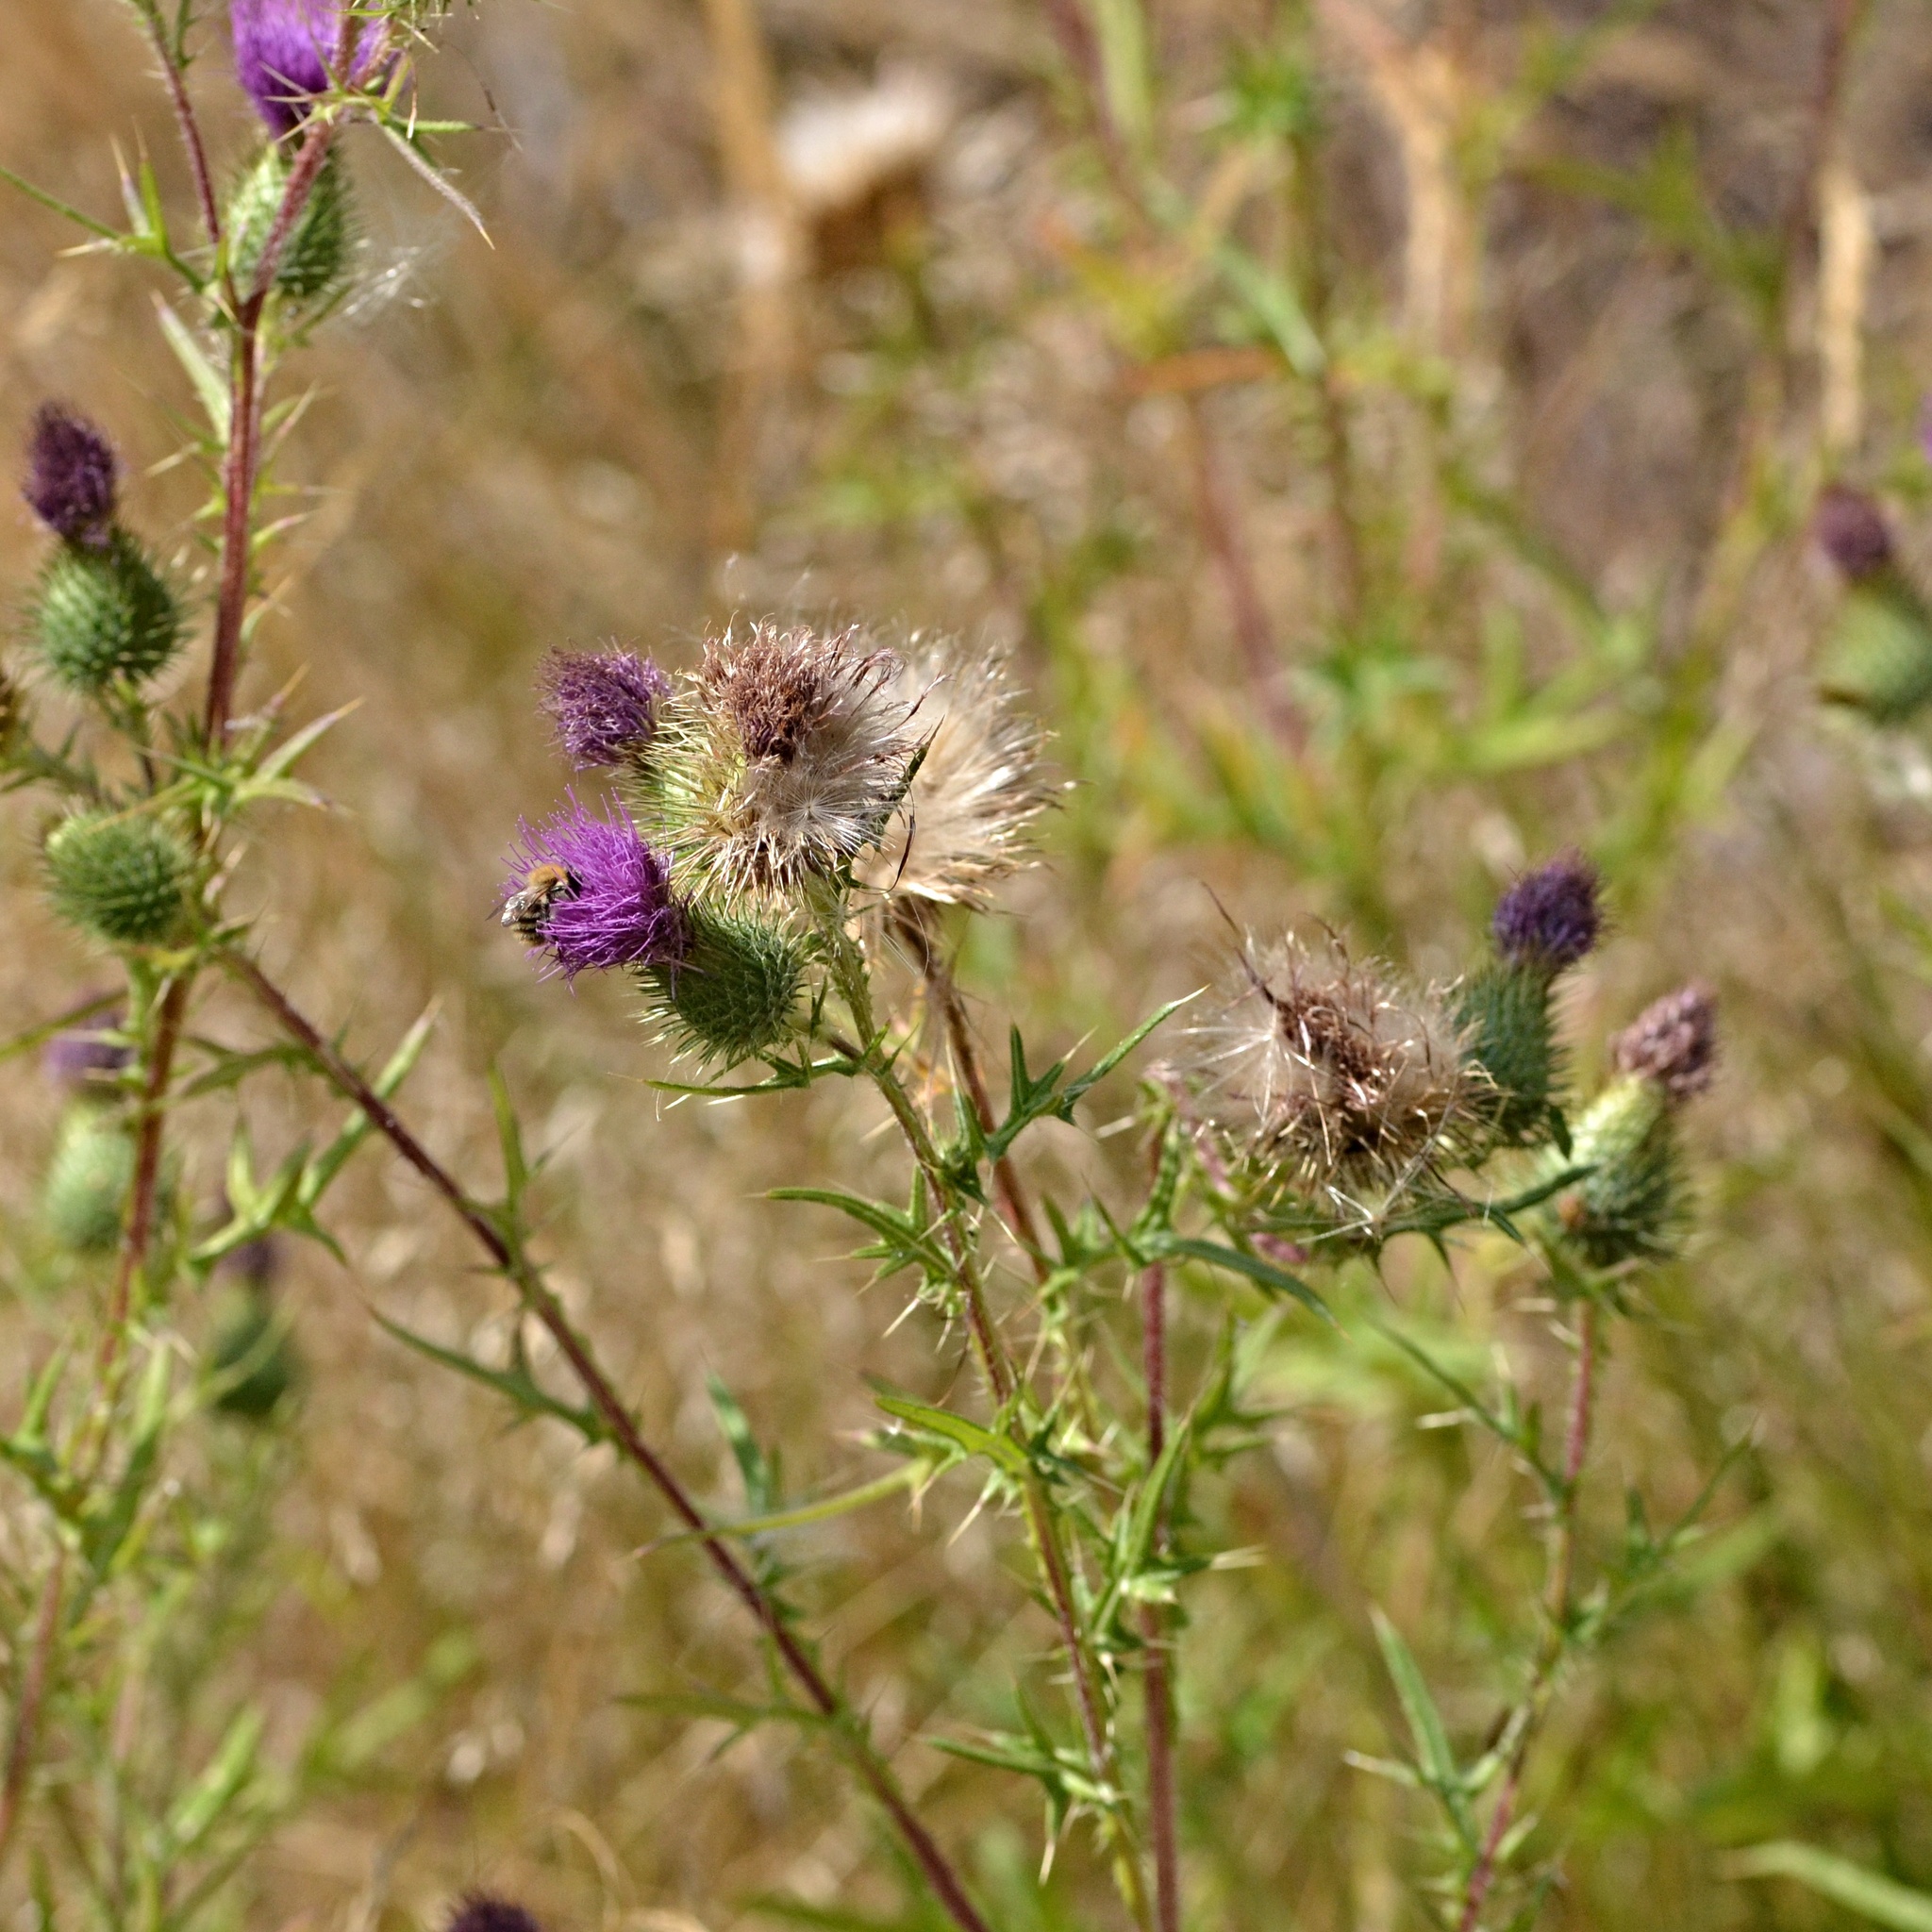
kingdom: Plantae
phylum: Tracheophyta
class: Magnoliopsida
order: Asterales
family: Asteraceae
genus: Cirsium
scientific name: Cirsium vulgare
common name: Bull thistle
